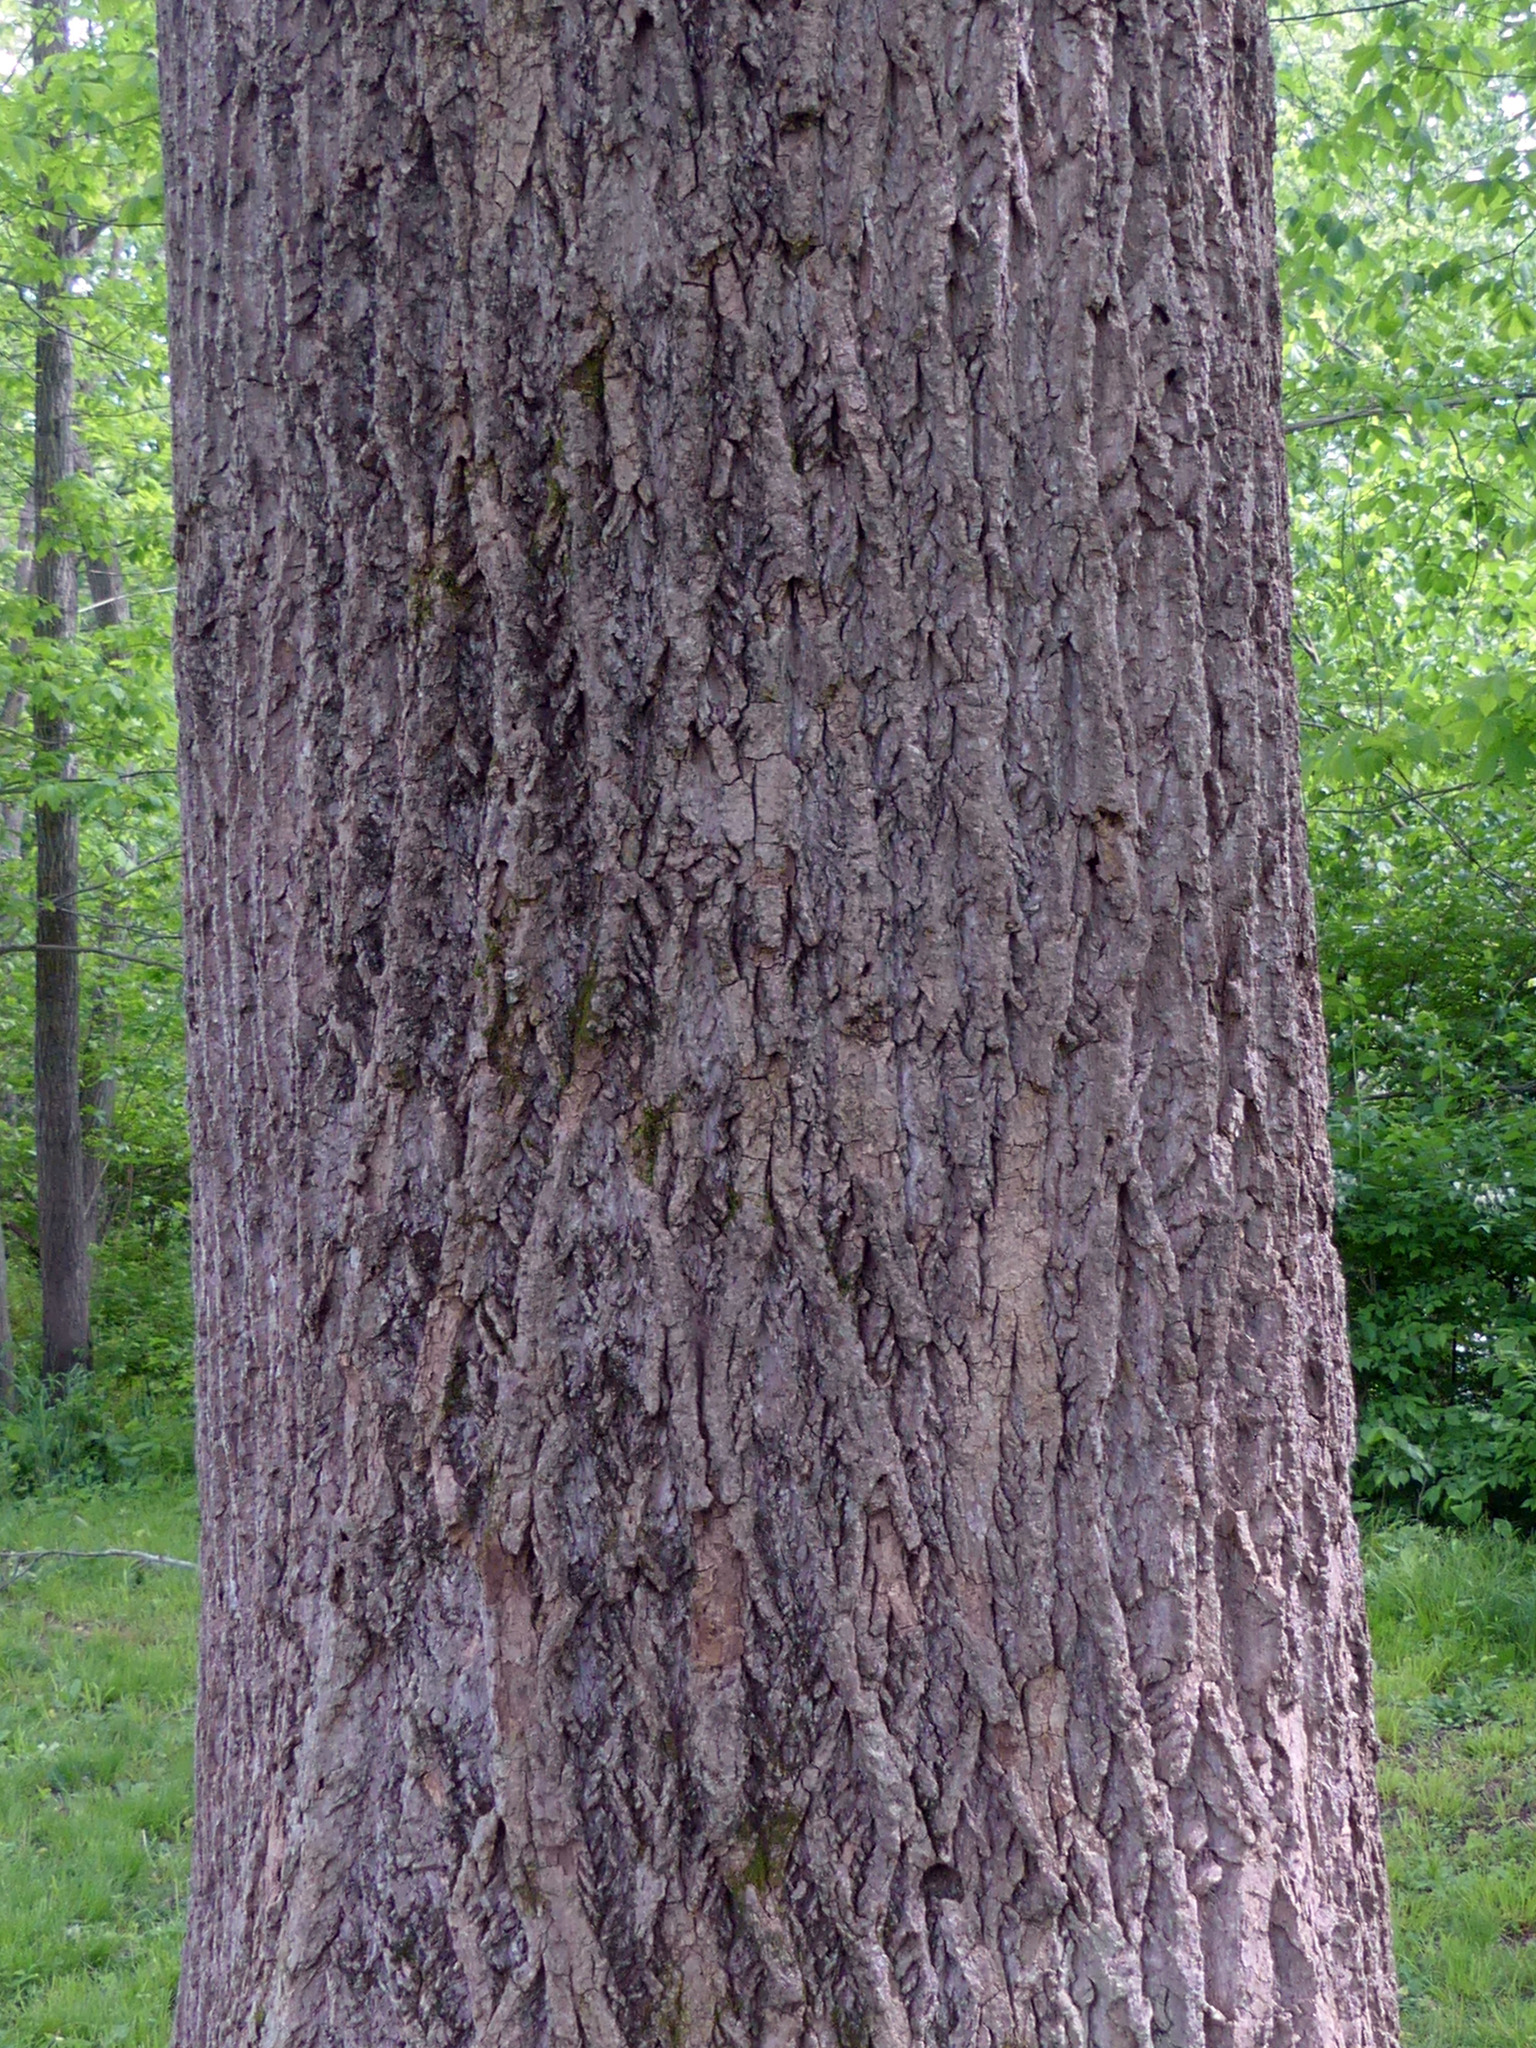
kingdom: Plantae
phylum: Tracheophyta
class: Magnoliopsida
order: Magnoliales
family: Magnoliaceae
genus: Liriodendron
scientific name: Liriodendron tulipifera
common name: Tulip tree
